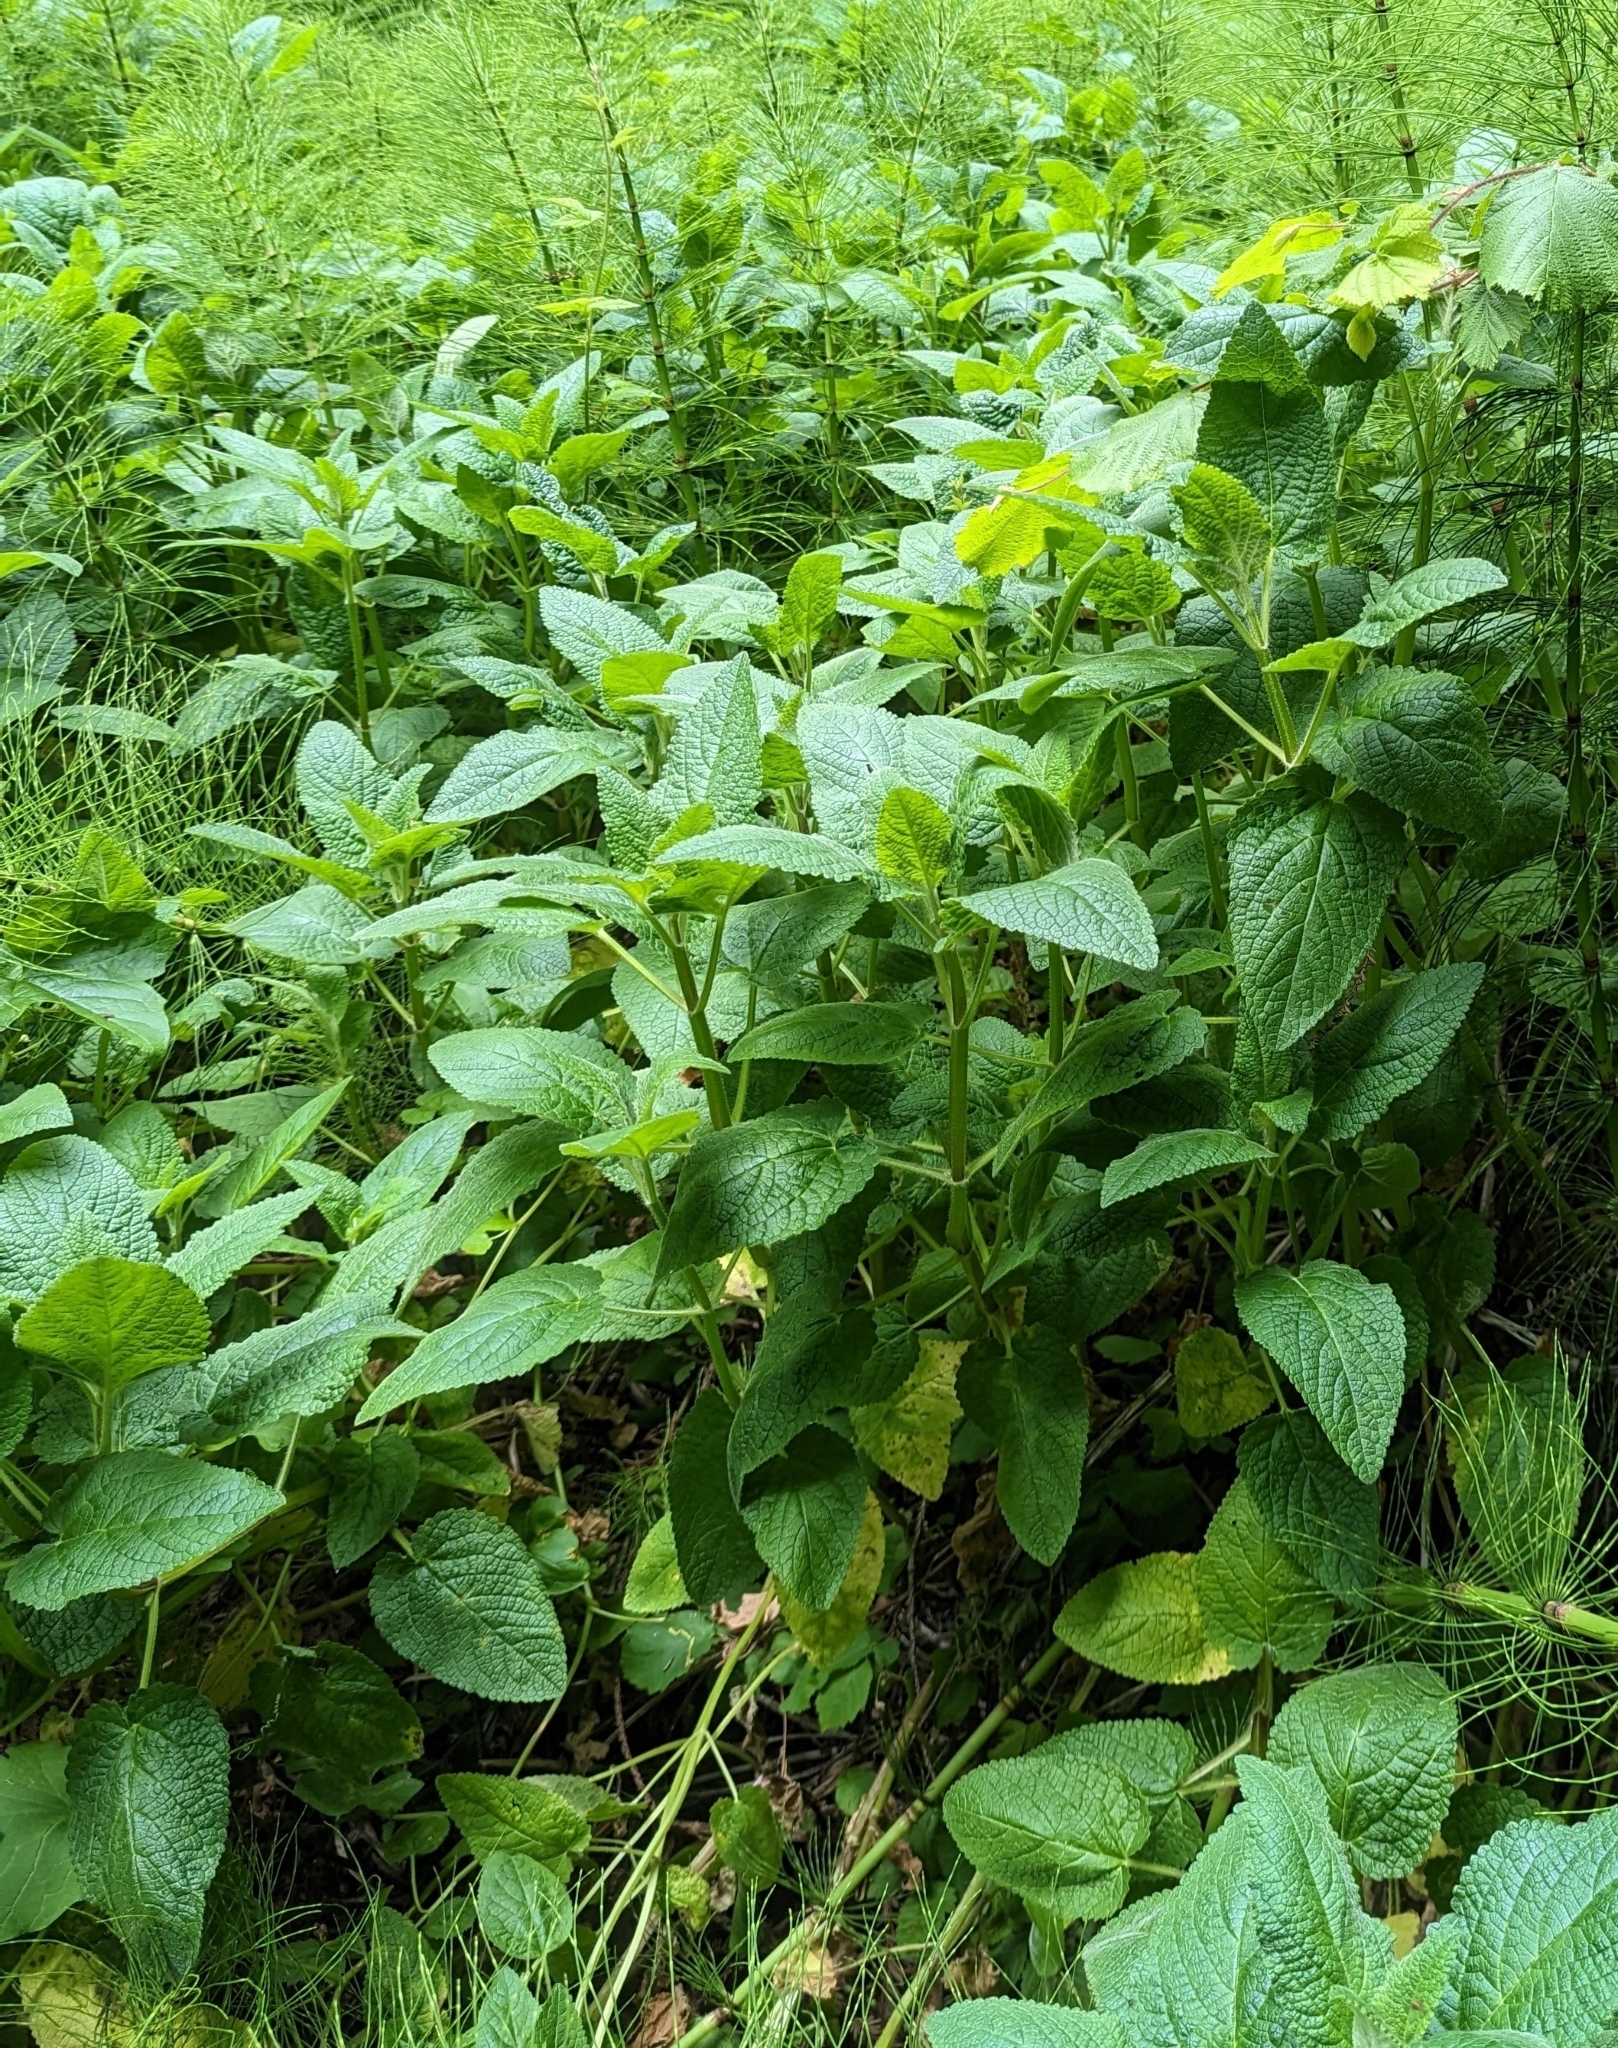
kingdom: Plantae
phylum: Tracheophyta
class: Magnoliopsida
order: Lamiales
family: Lamiaceae
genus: Stachys
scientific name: Stachys chamissonis
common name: Coastal hedge-nettle
